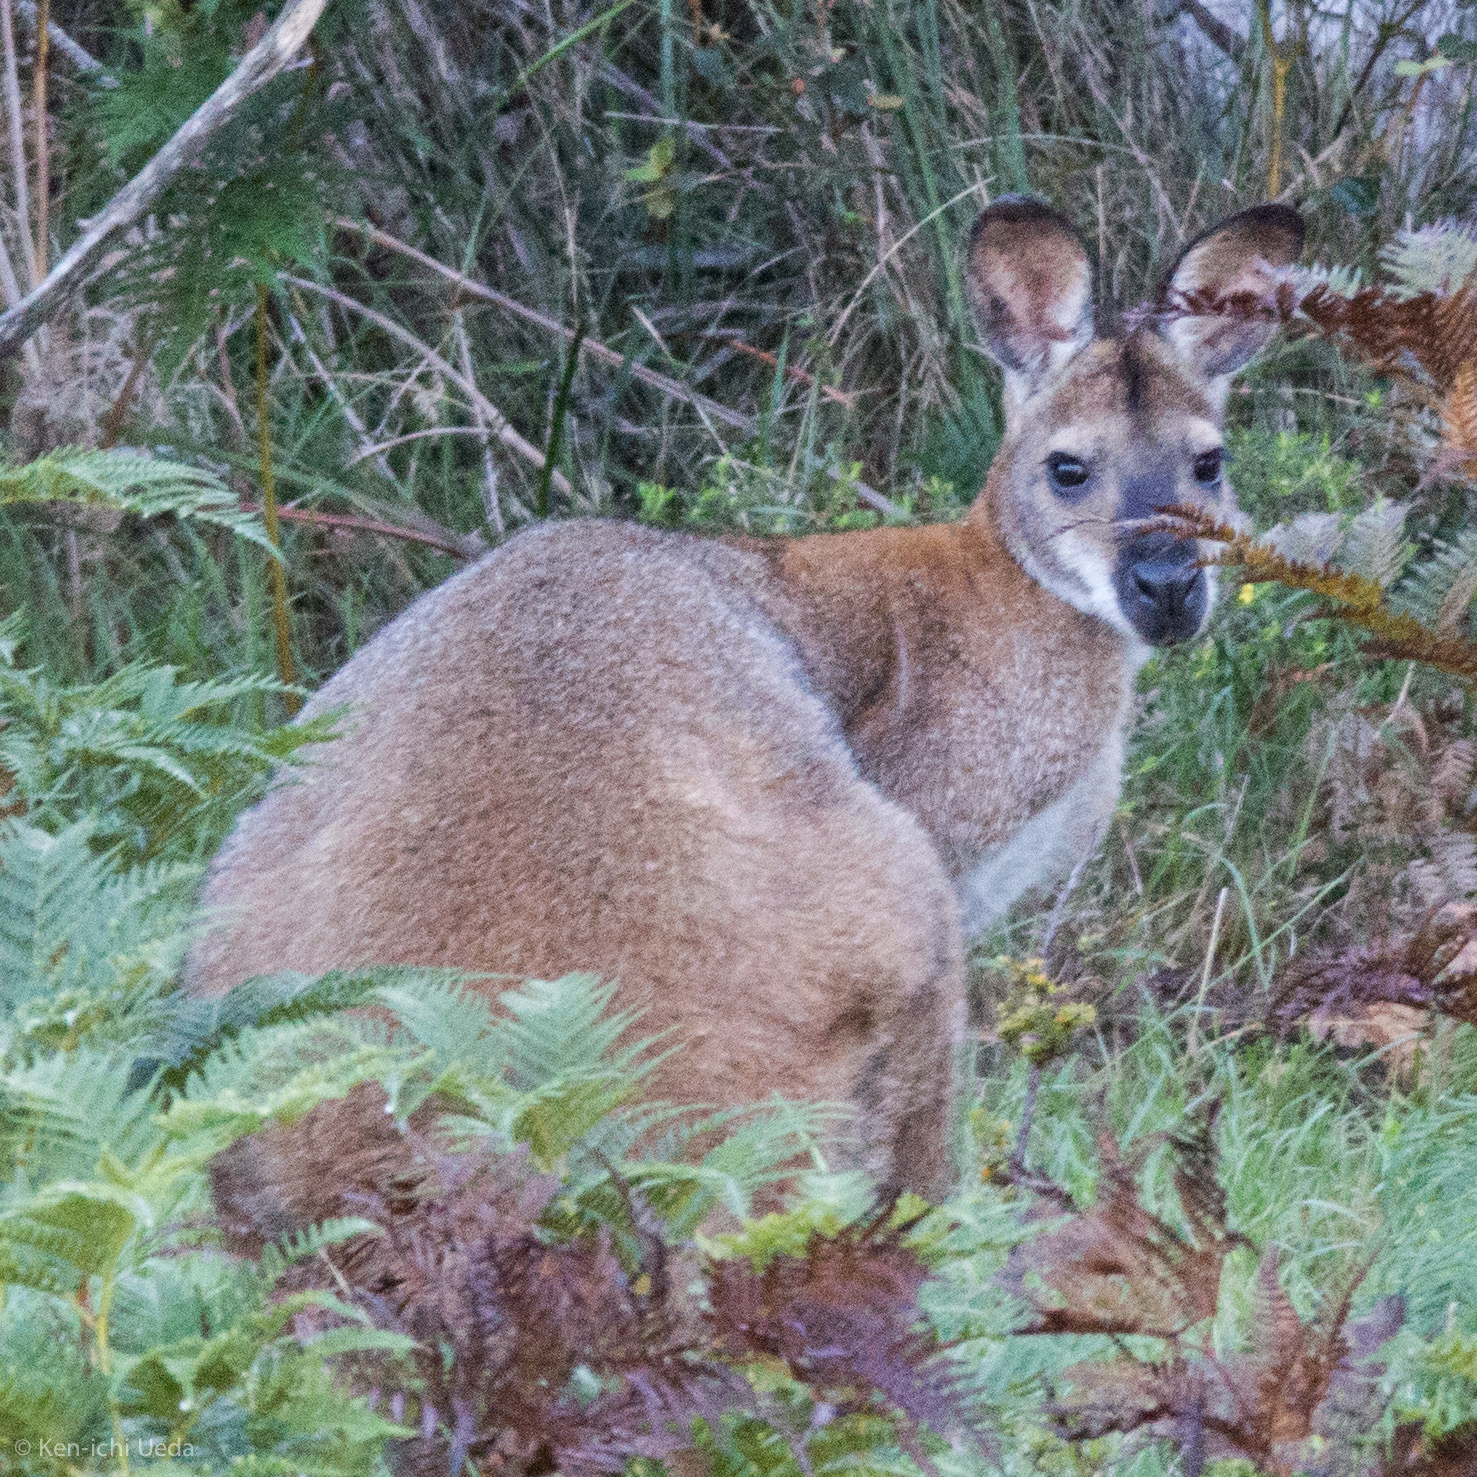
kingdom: Animalia
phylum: Chordata
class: Mammalia
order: Diprotodontia
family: Macropodidae
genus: Notamacropus
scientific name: Notamacropus rufogriseus
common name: Red-necked wallaby
